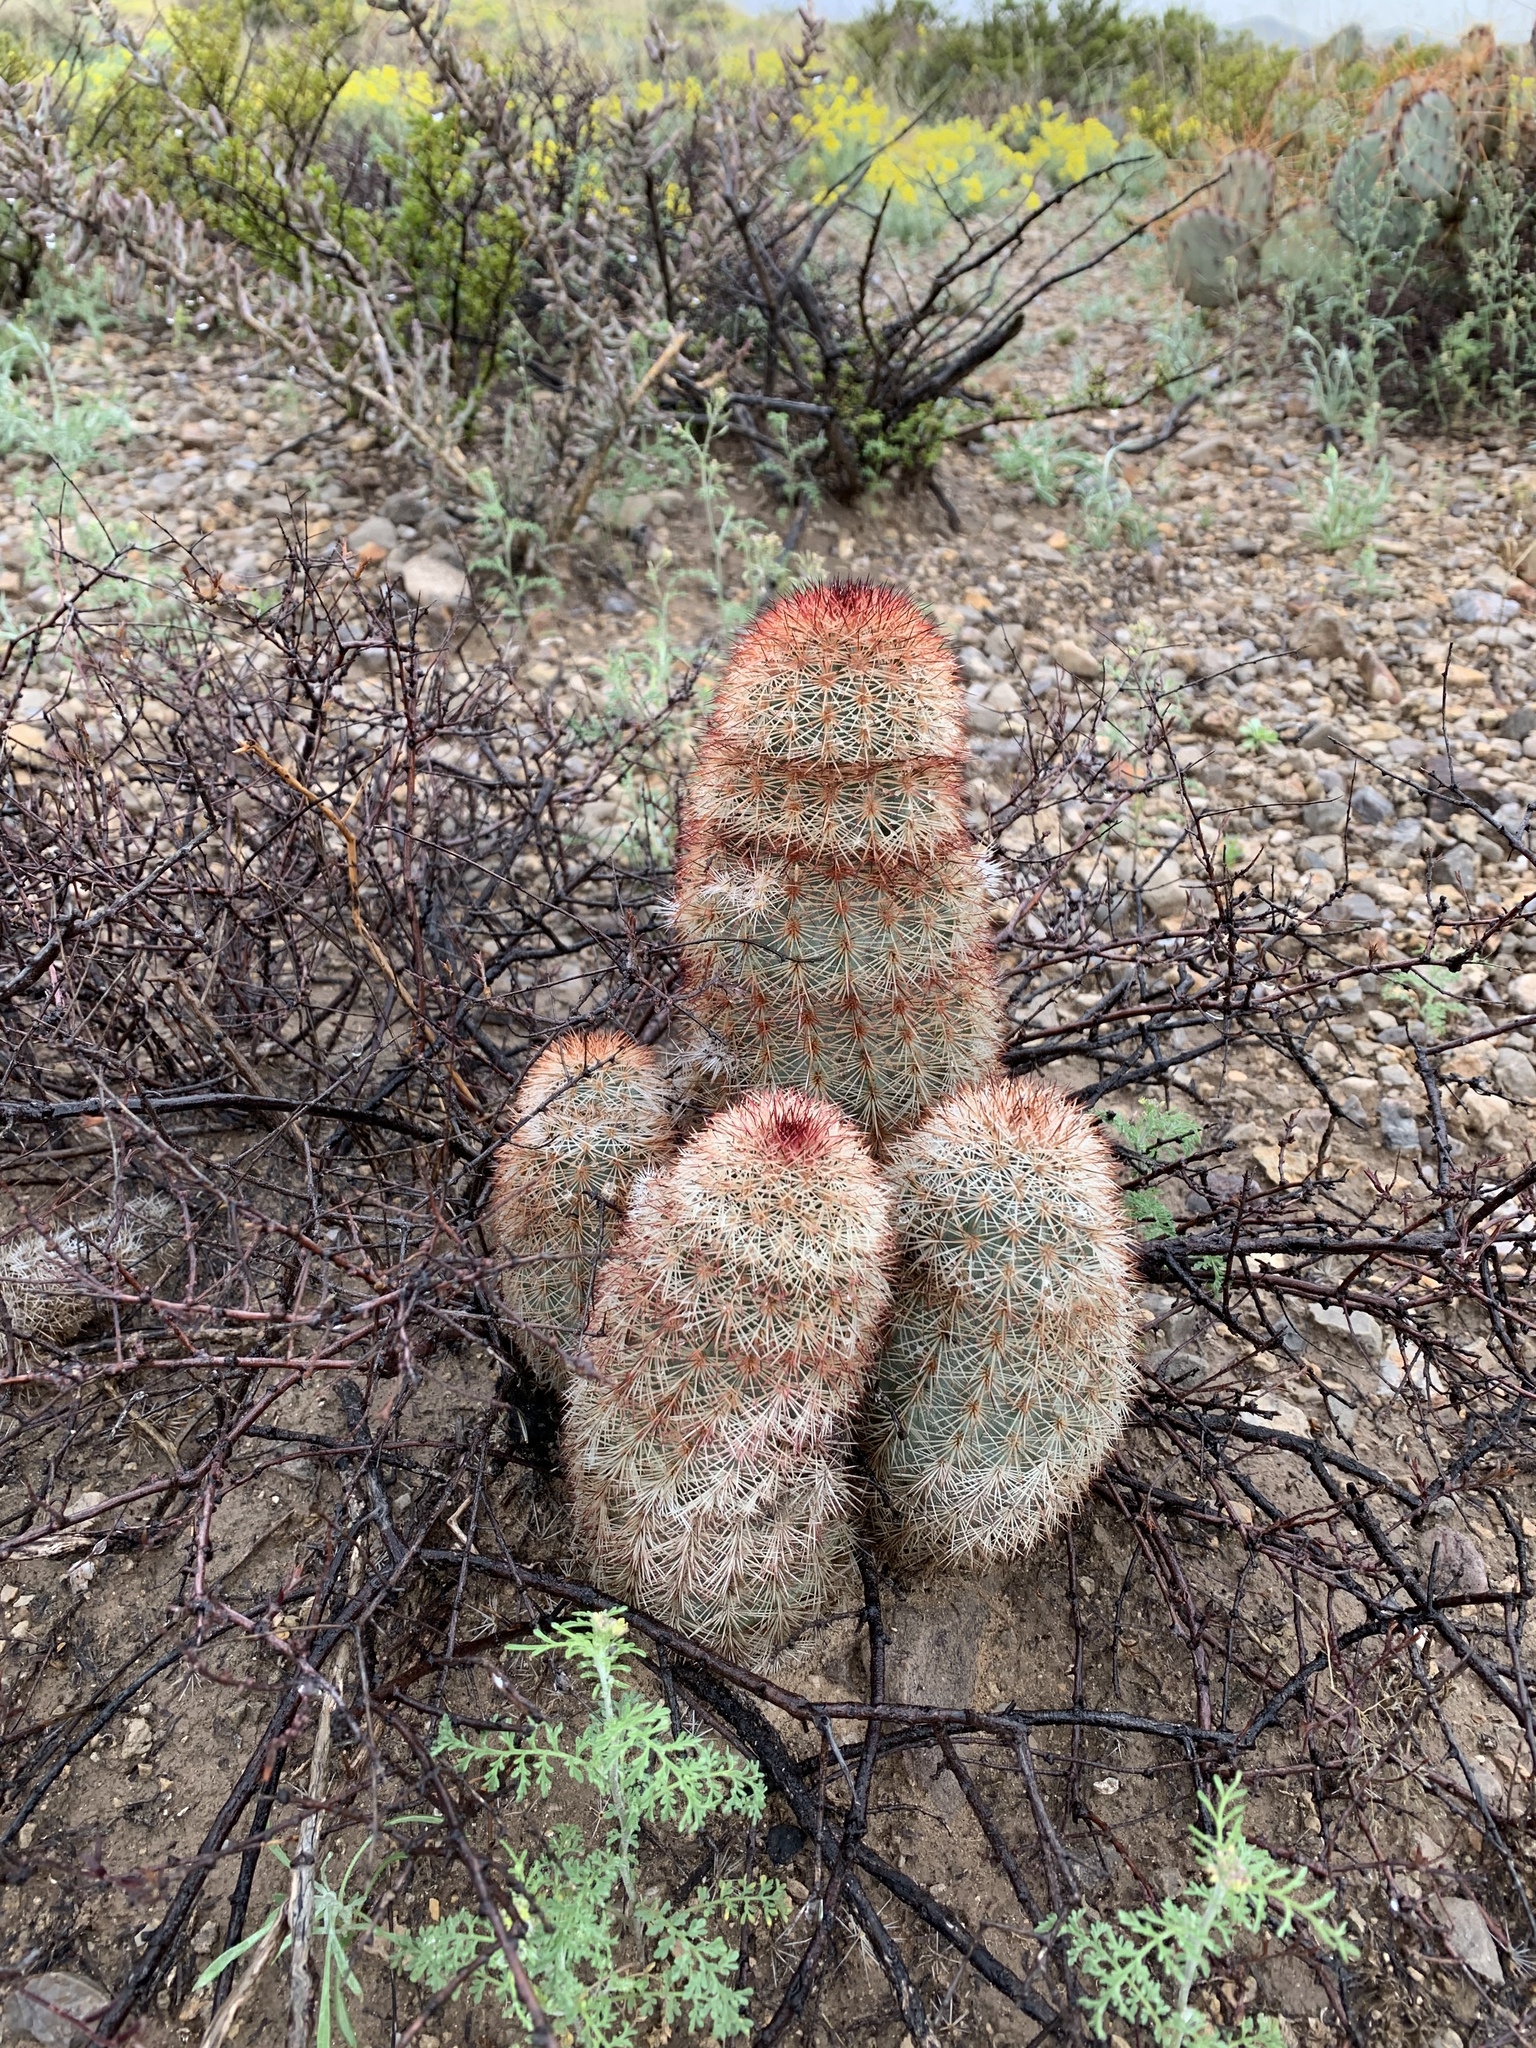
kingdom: Plantae
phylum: Tracheophyta
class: Magnoliopsida
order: Caryophyllales
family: Cactaceae
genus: Echinocereus
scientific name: Echinocereus dasyacanthus
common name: Spiny hedgehog cactus
